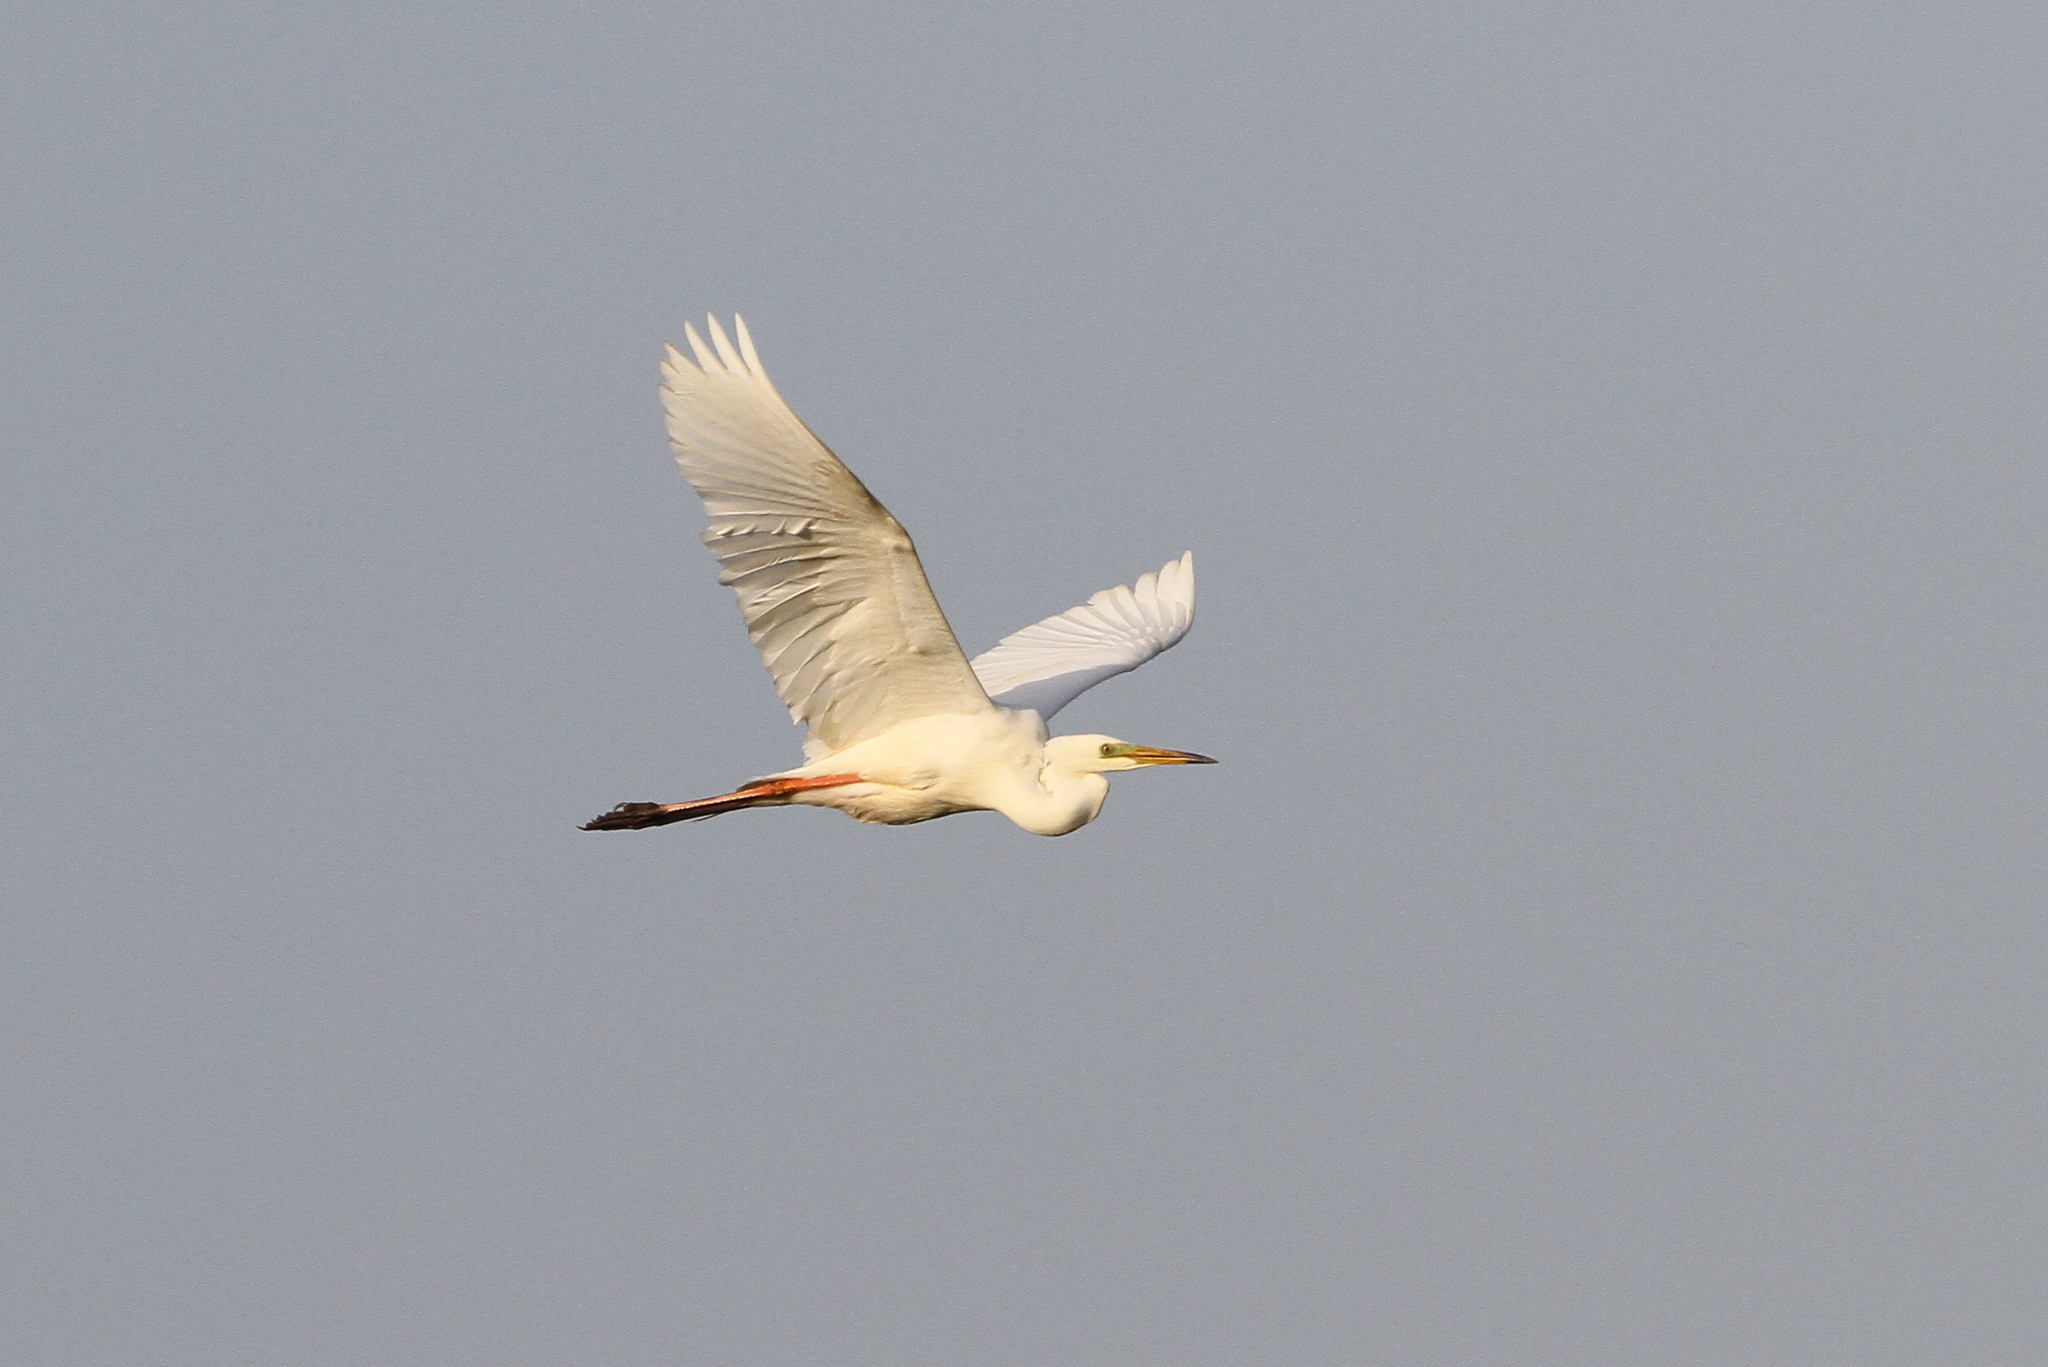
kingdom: Animalia
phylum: Chordata
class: Aves
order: Pelecaniformes
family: Ardeidae
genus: Ardea
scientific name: Ardea alba
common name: Great egret
